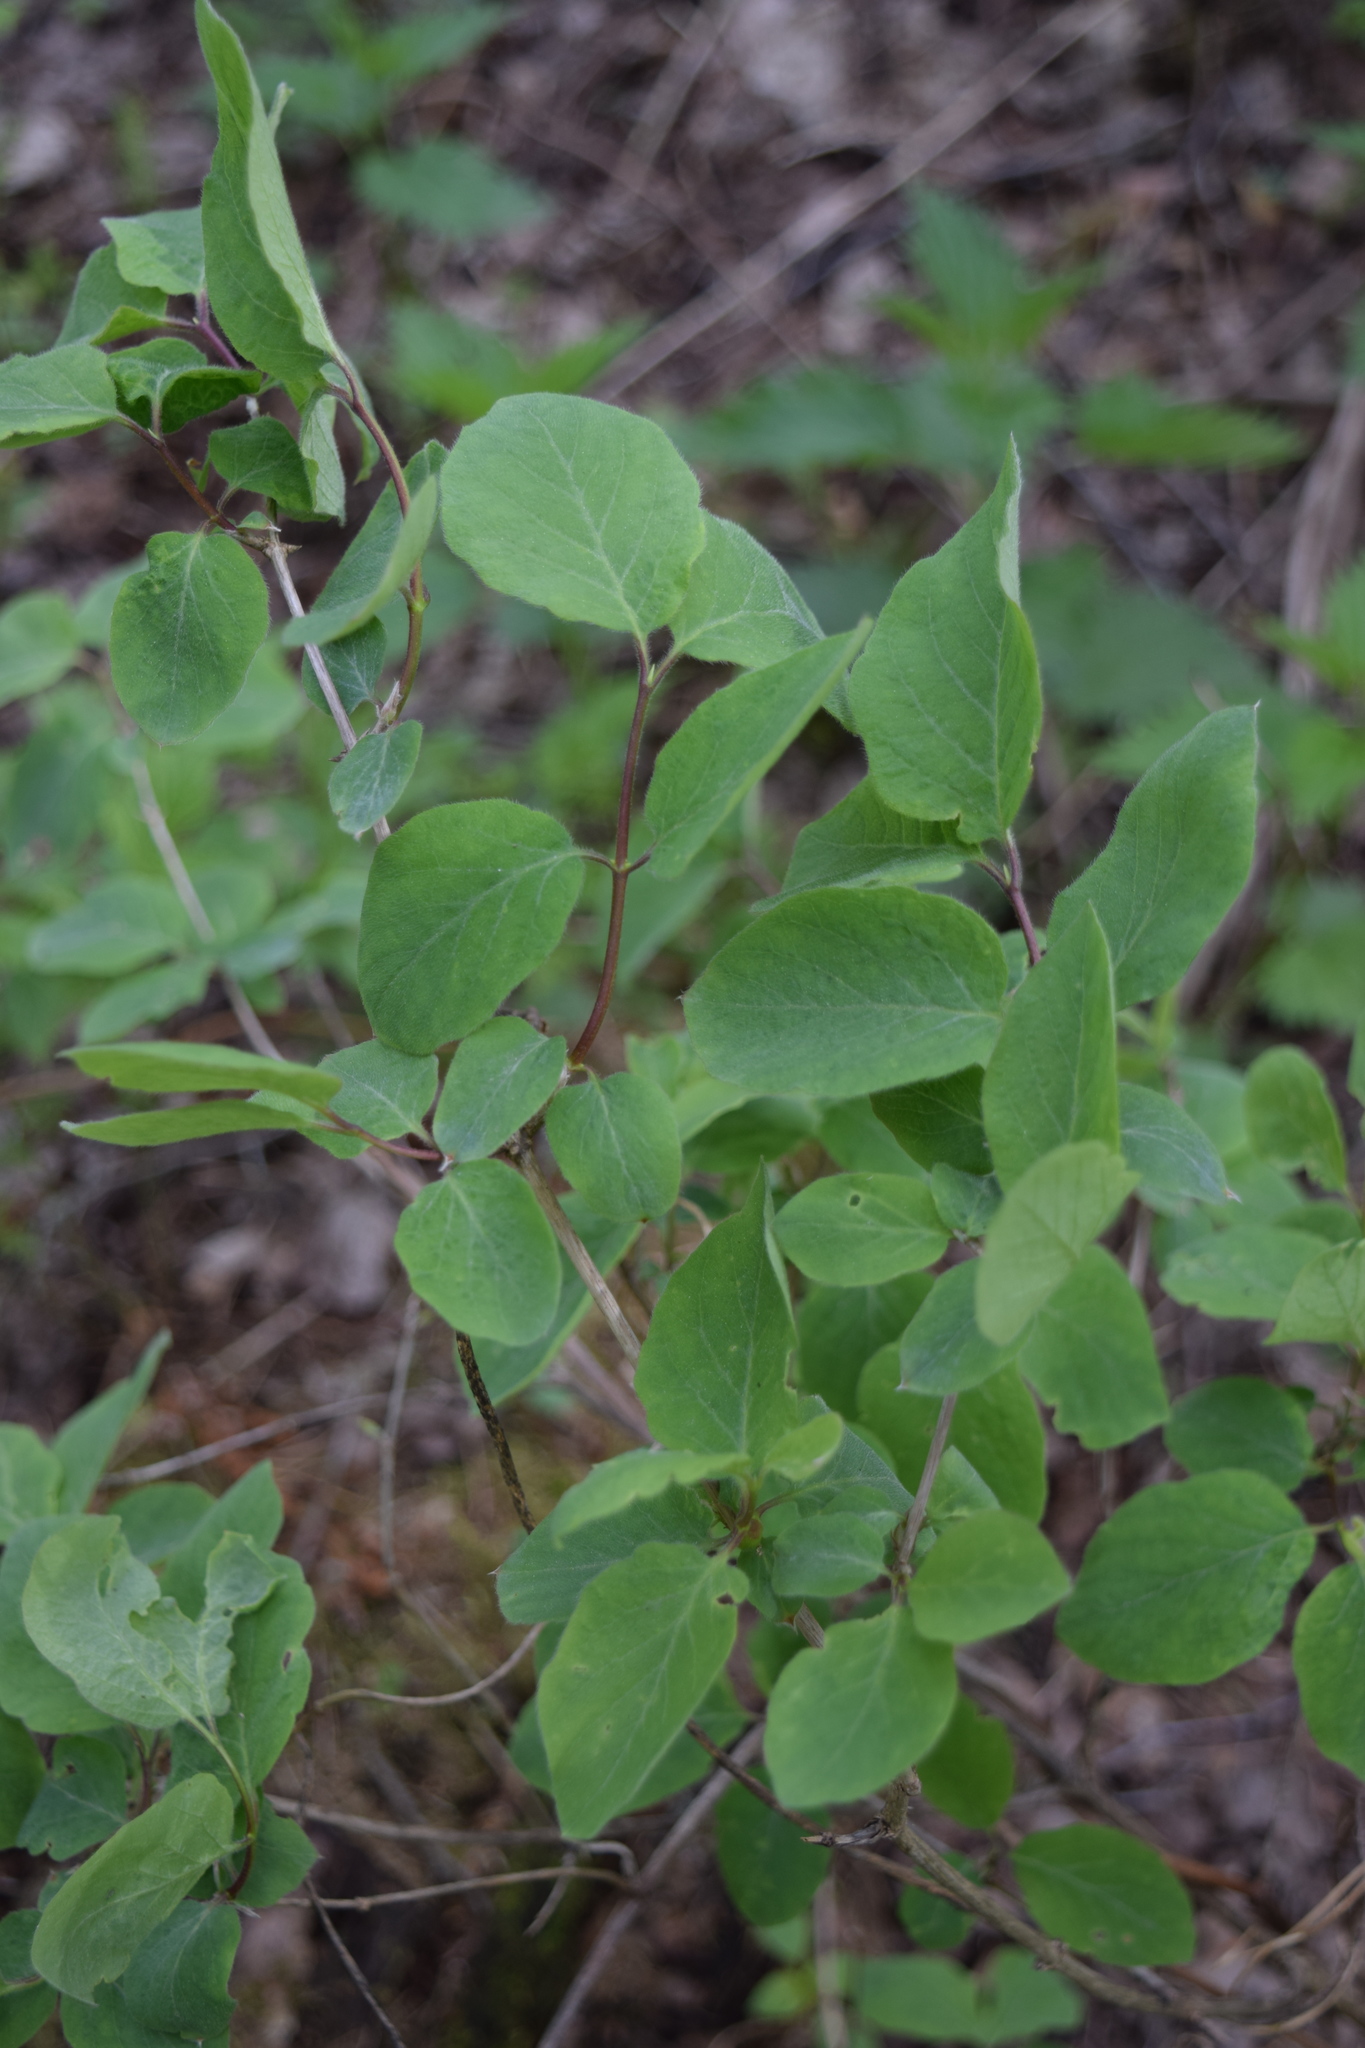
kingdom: Plantae
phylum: Tracheophyta
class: Magnoliopsida
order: Dipsacales
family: Caprifoliaceae
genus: Lonicera
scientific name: Lonicera xylosteum
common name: Fly honeysuckle
